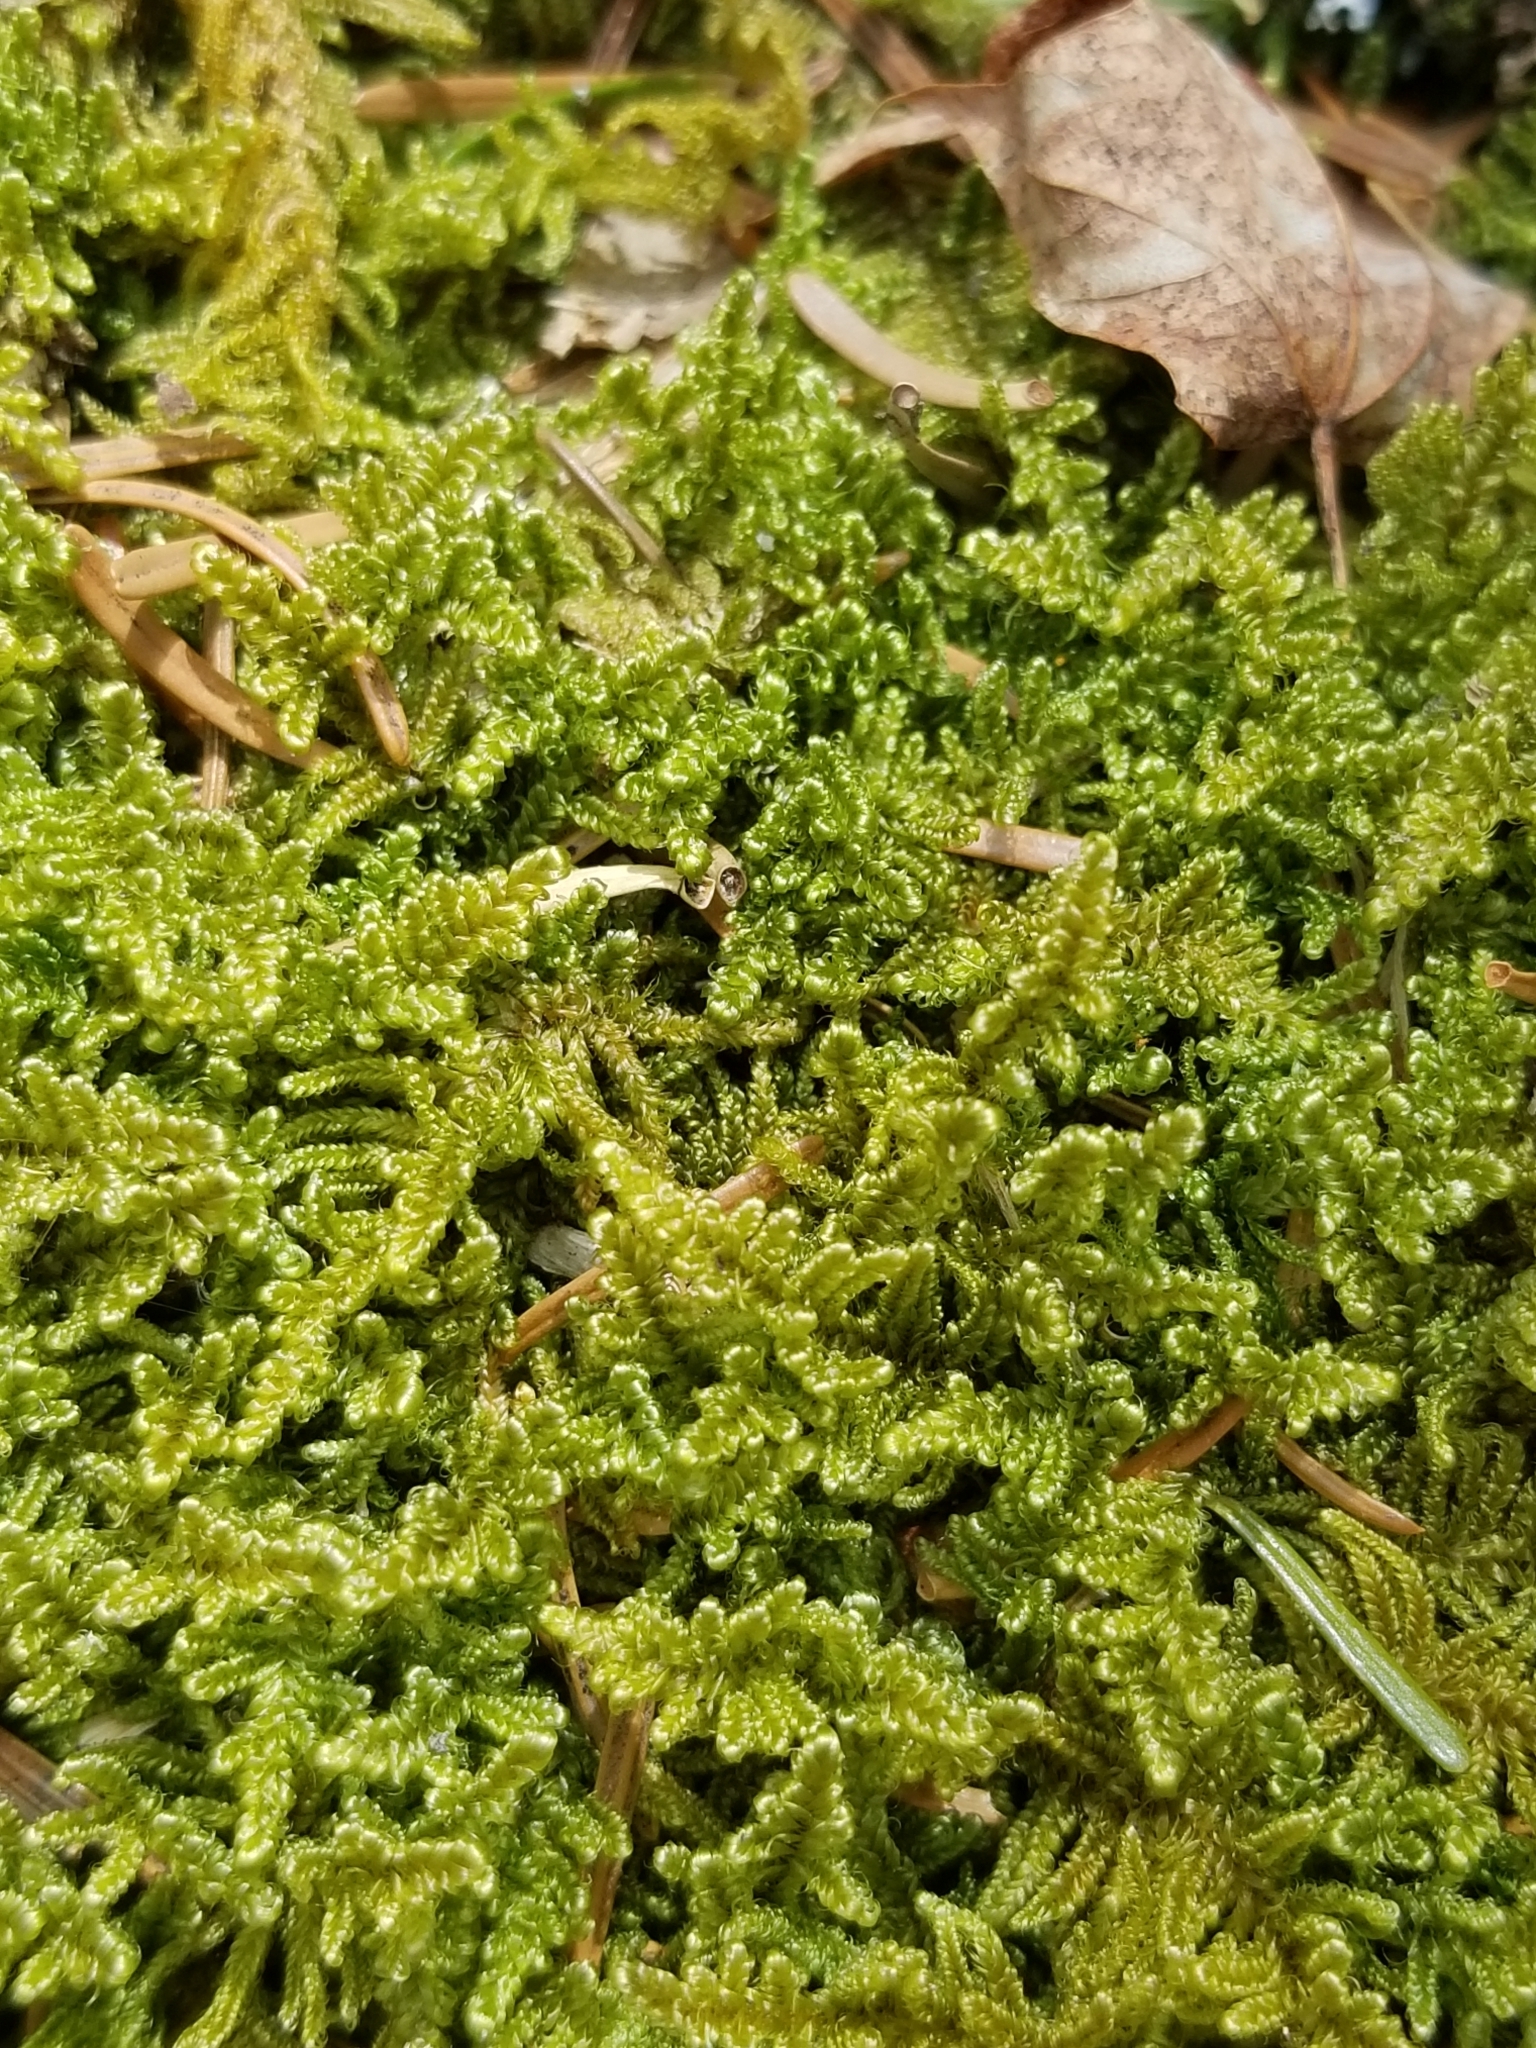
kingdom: Plantae
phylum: Bryophyta
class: Bryopsida
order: Hypnales
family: Callicladiaceae
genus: Callicladium
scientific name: Callicladium imponens
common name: Brocade moss
